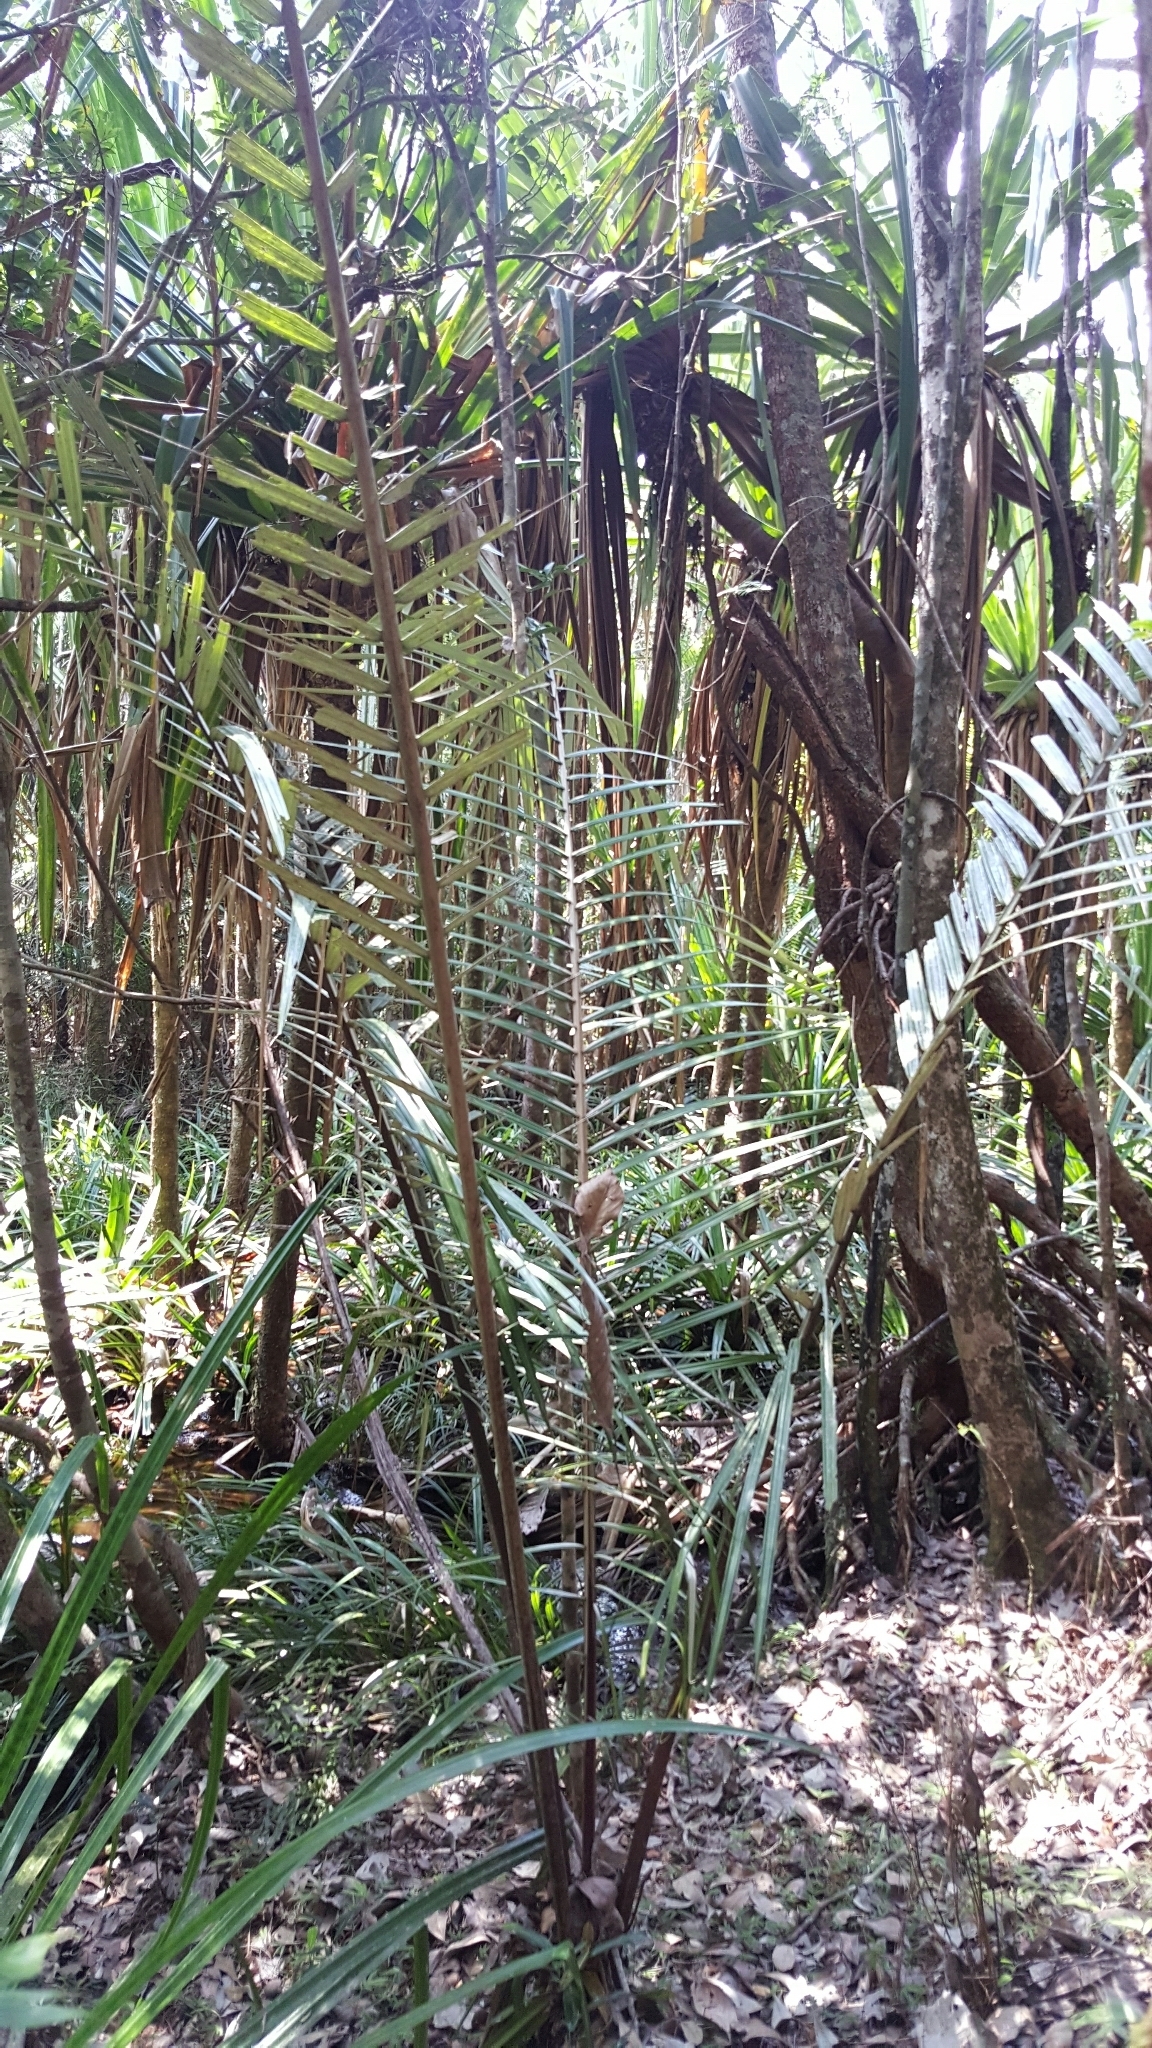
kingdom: Plantae
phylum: Tracheophyta
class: Liliopsida
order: Arecales
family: Arecaceae
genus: Ravenea
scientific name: Ravenea hypoleuca
